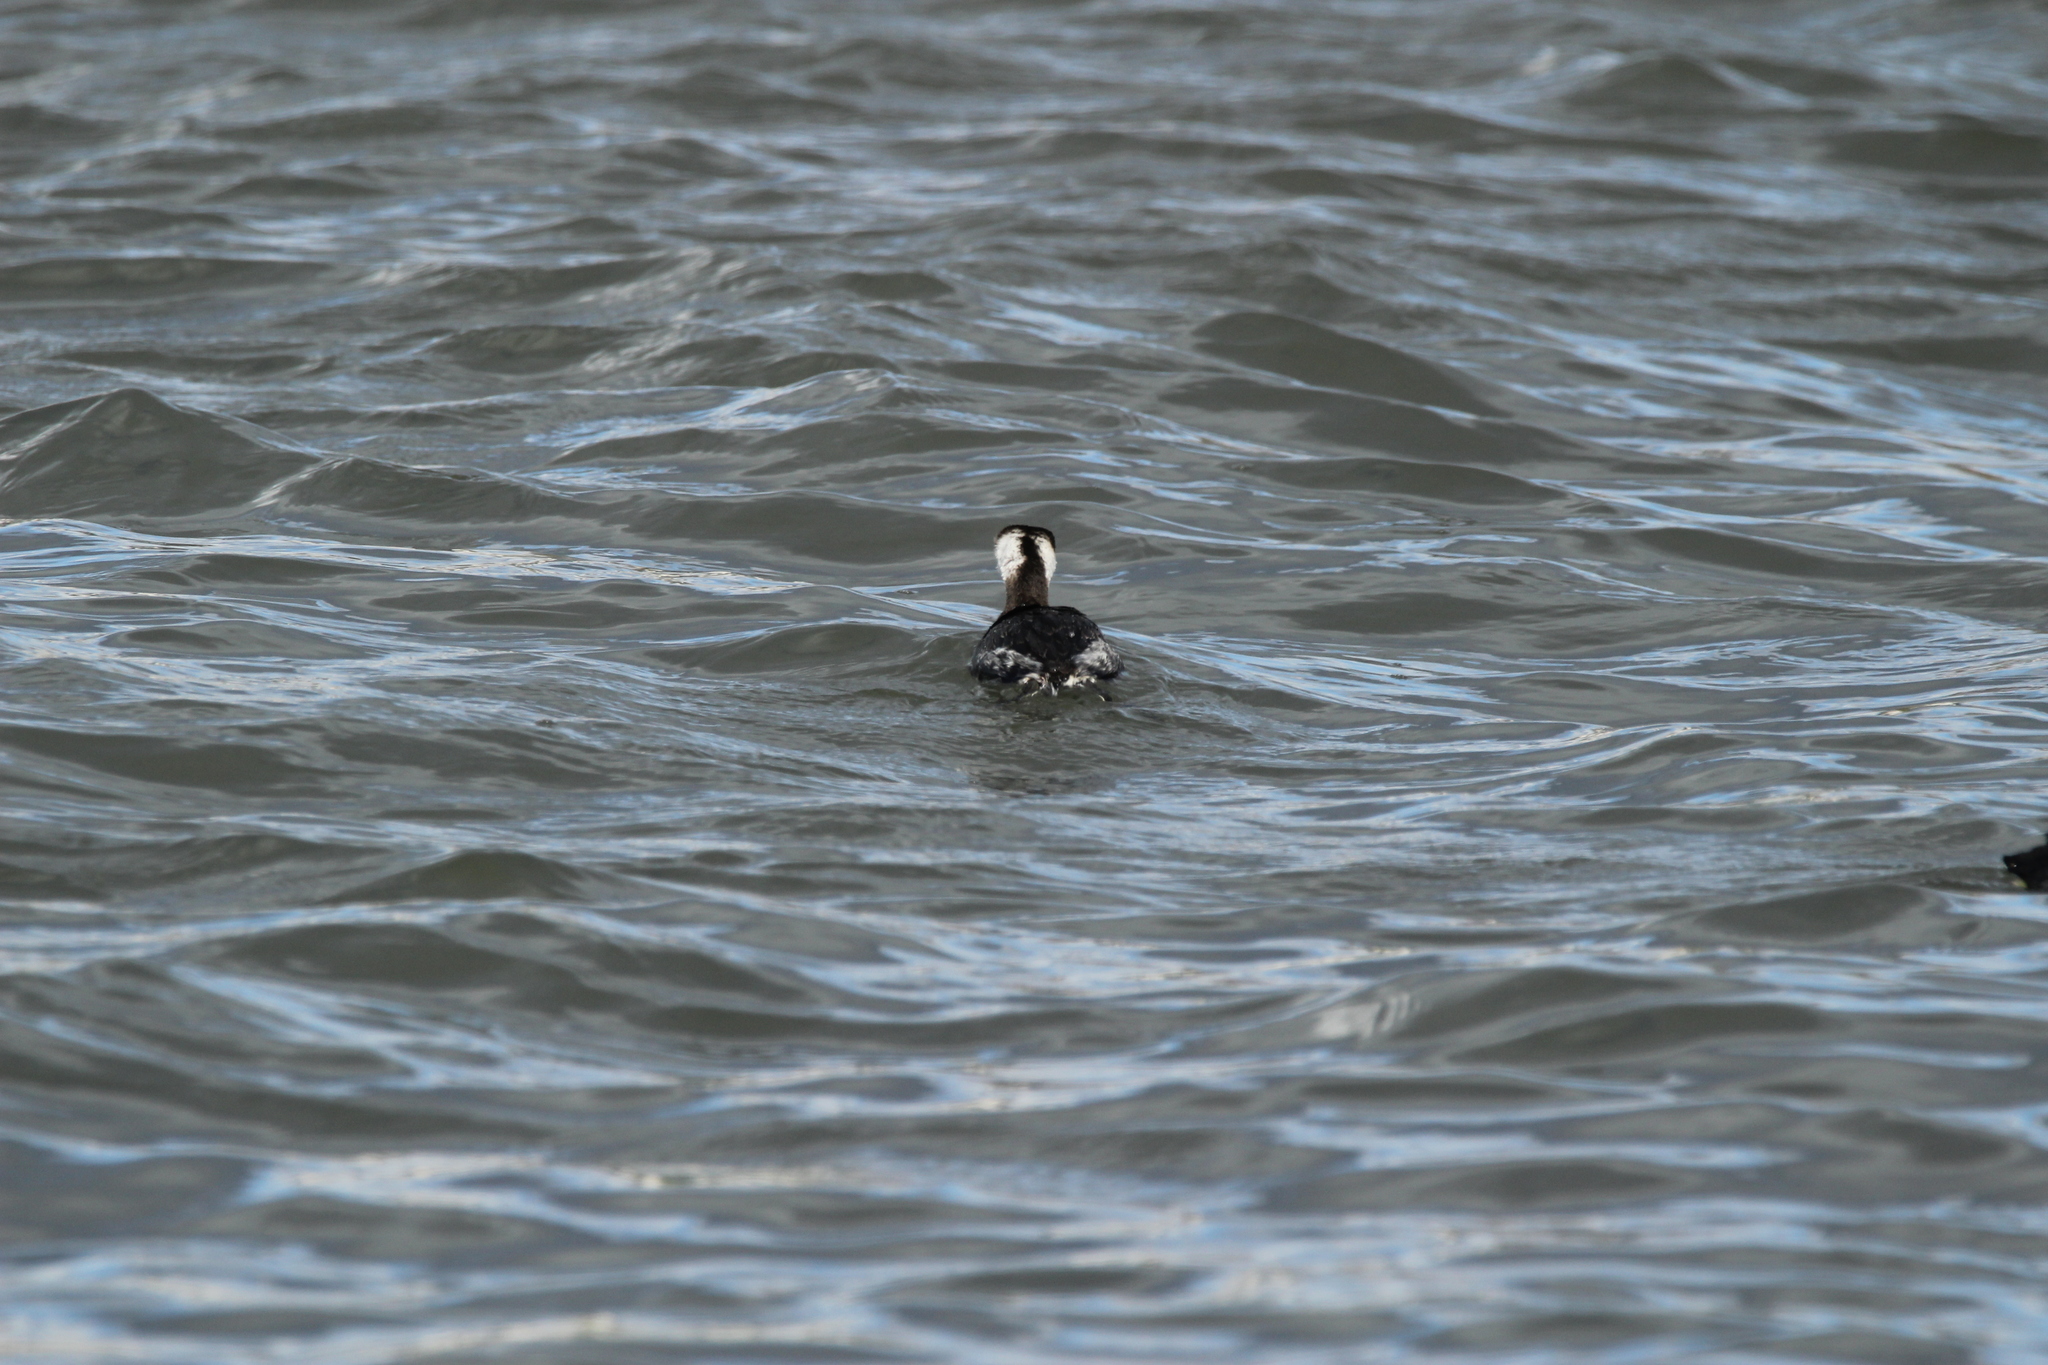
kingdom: Animalia
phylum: Chordata
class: Aves
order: Podicipediformes
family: Podicipedidae
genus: Podiceps
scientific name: Podiceps auritus
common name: Horned grebe
